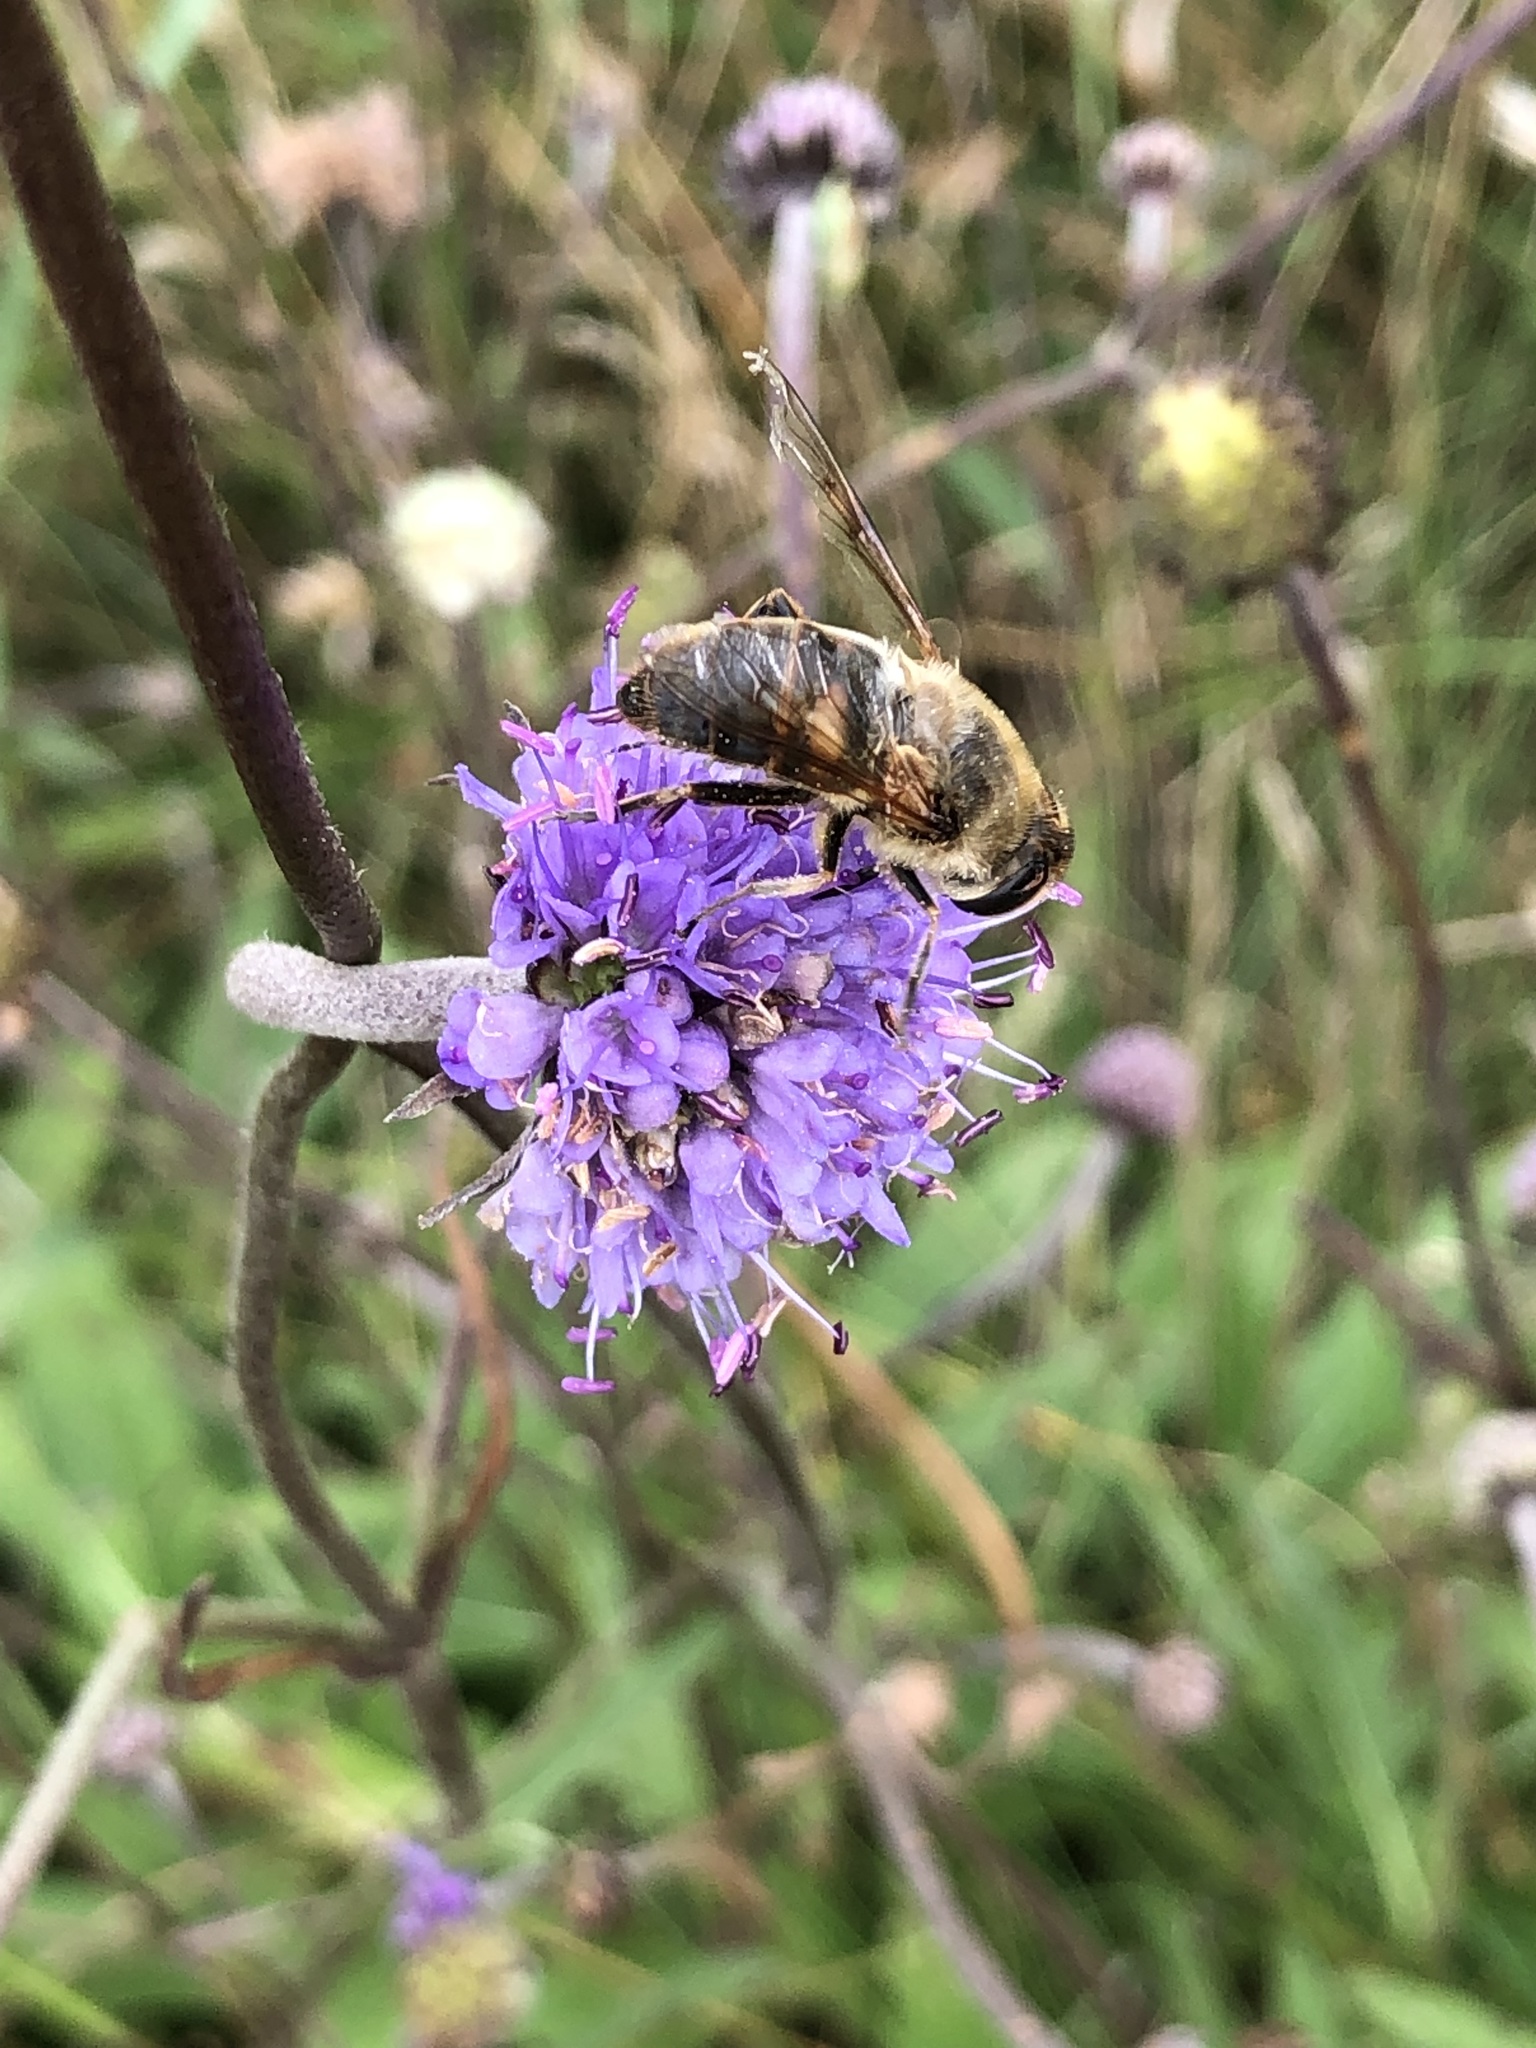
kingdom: Animalia
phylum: Arthropoda
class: Insecta
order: Diptera
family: Syrphidae
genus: Eristalis
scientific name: Eristalis tenax
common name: Drone fly
